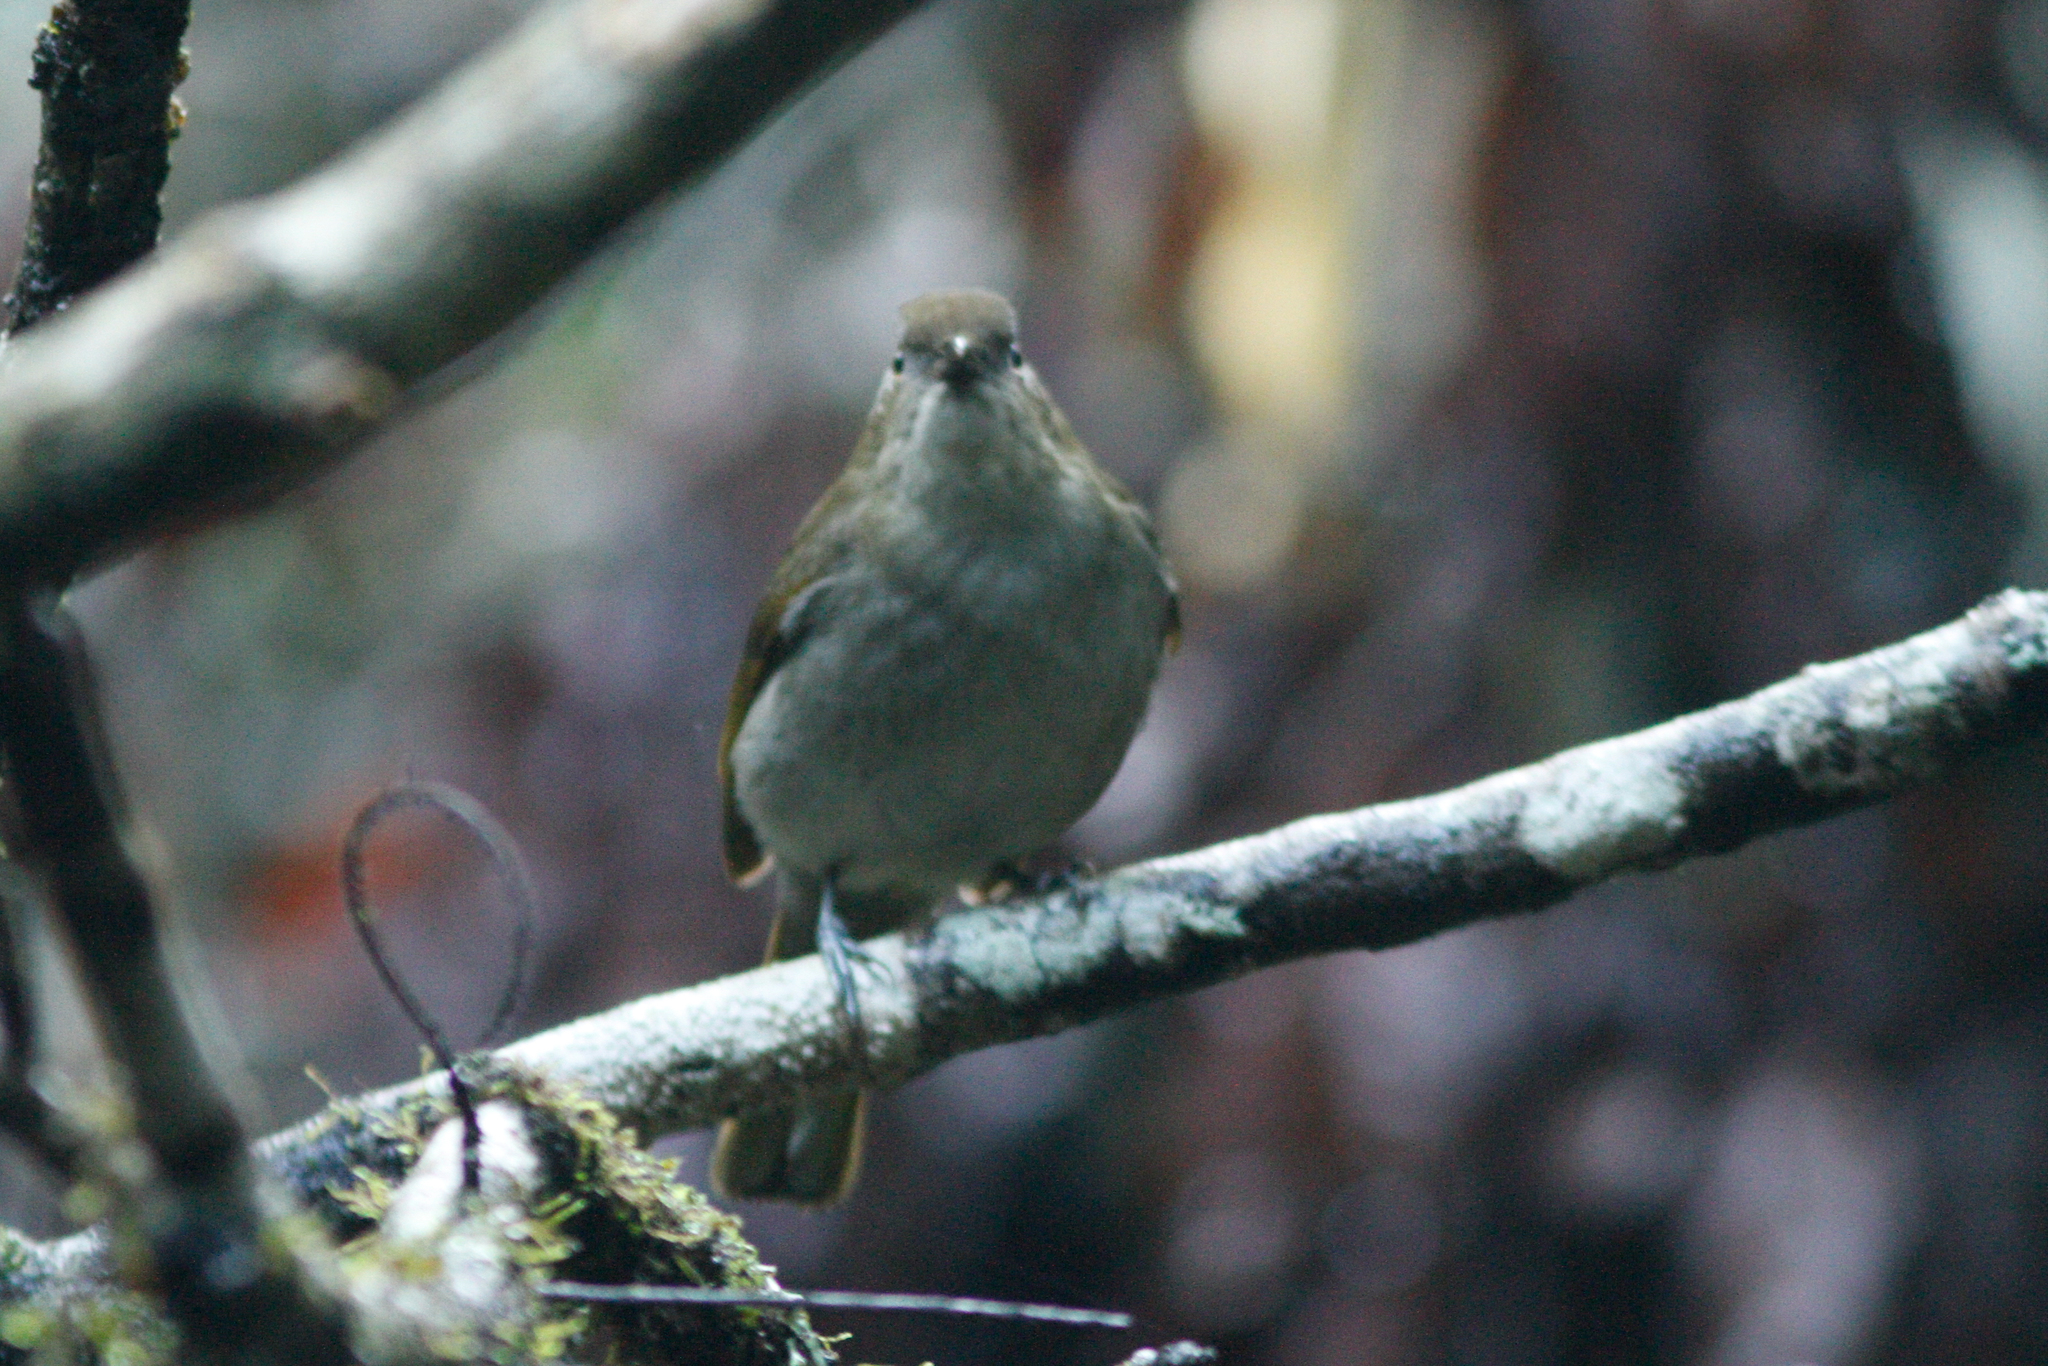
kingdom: Animalia
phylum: Chordata
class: Aves
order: Passeriformes
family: Ptilonorhynchidae
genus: Prionodura
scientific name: Prionodura newtoniana
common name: Golden bowerbird
